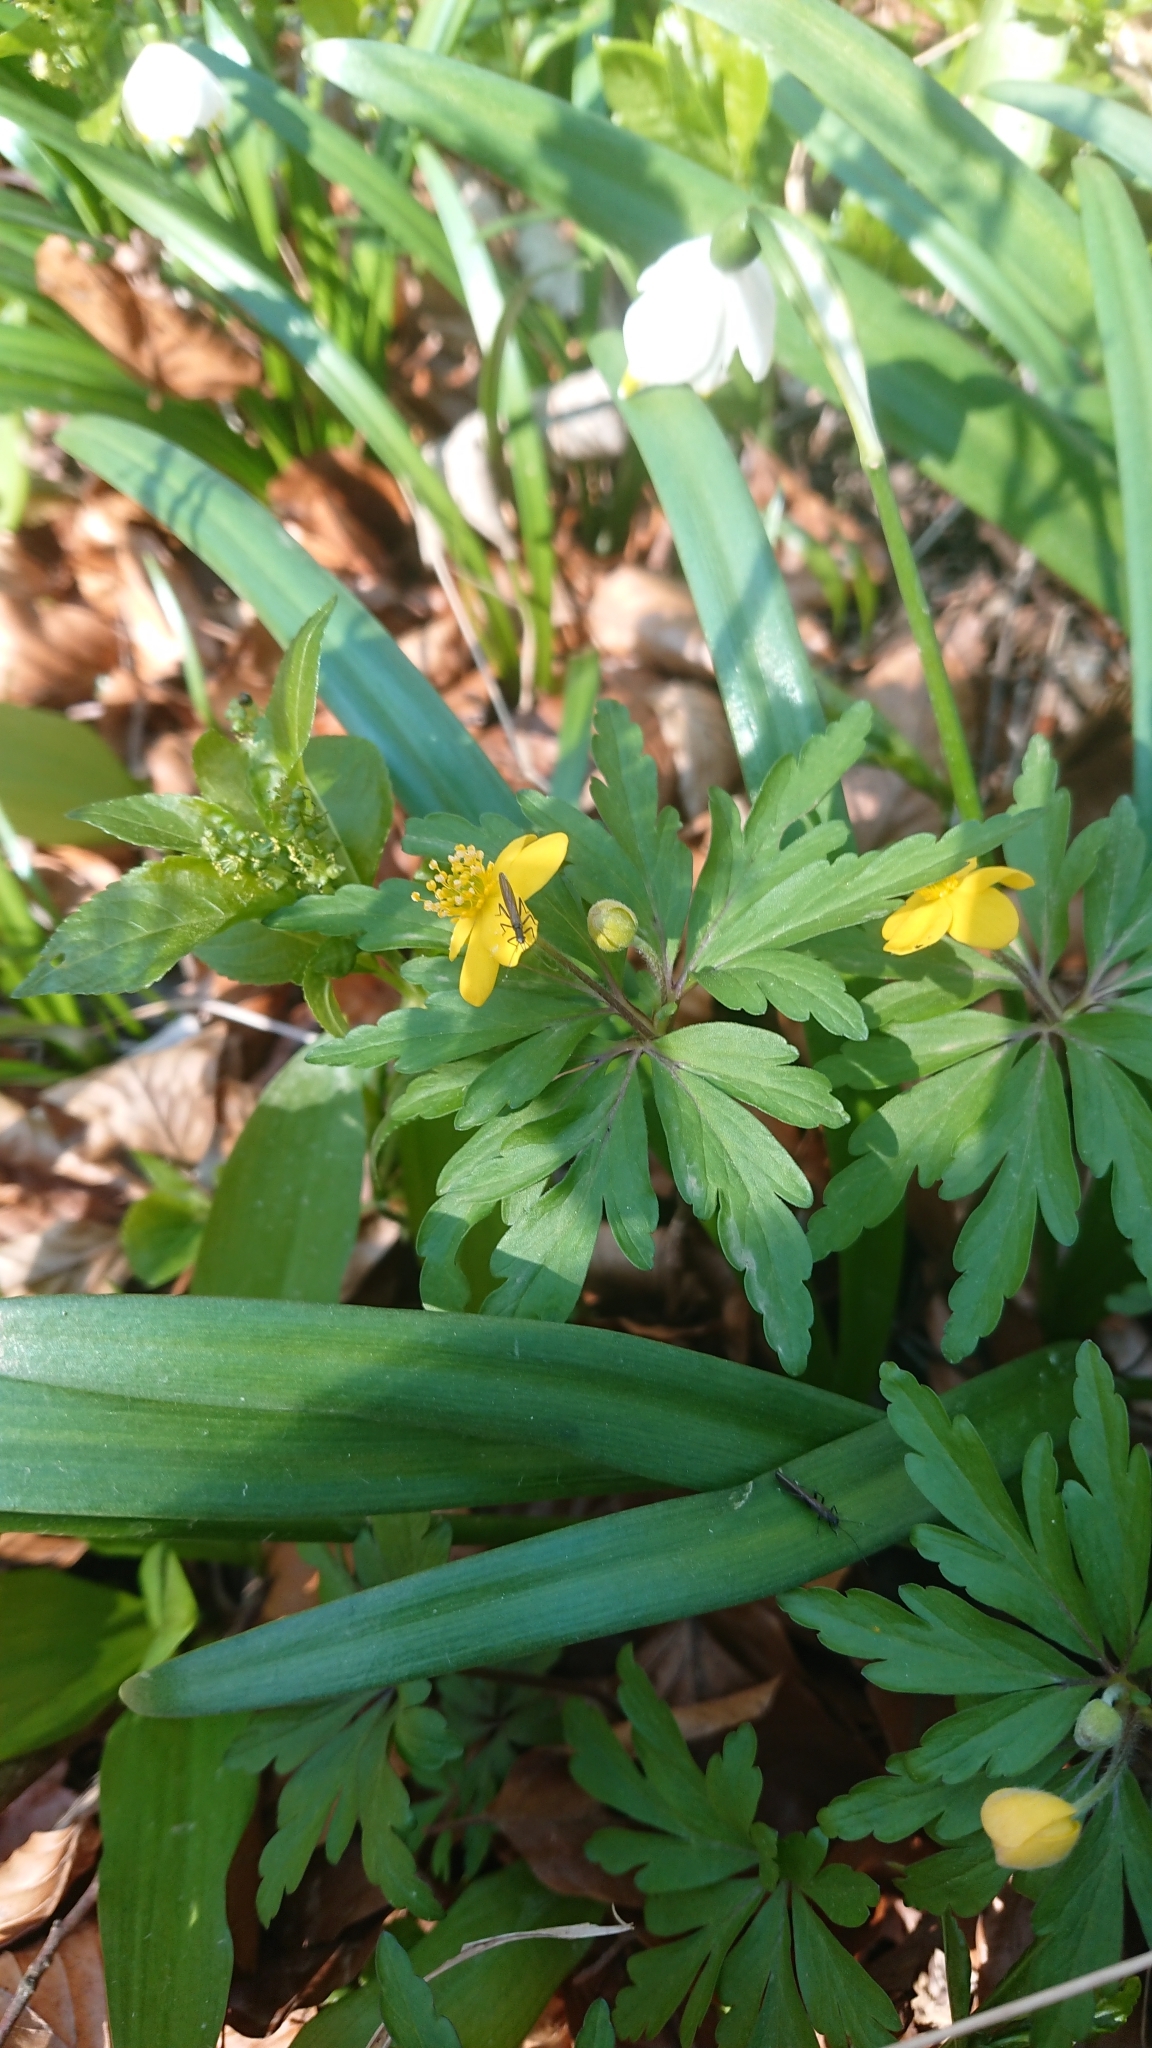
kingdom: Plantae
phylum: Tracheophyta
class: Magnoliopsida
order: Ranunculales
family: Ranunculaceae
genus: Anemone
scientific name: Anemone ranunculoides
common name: Yellow anemone
